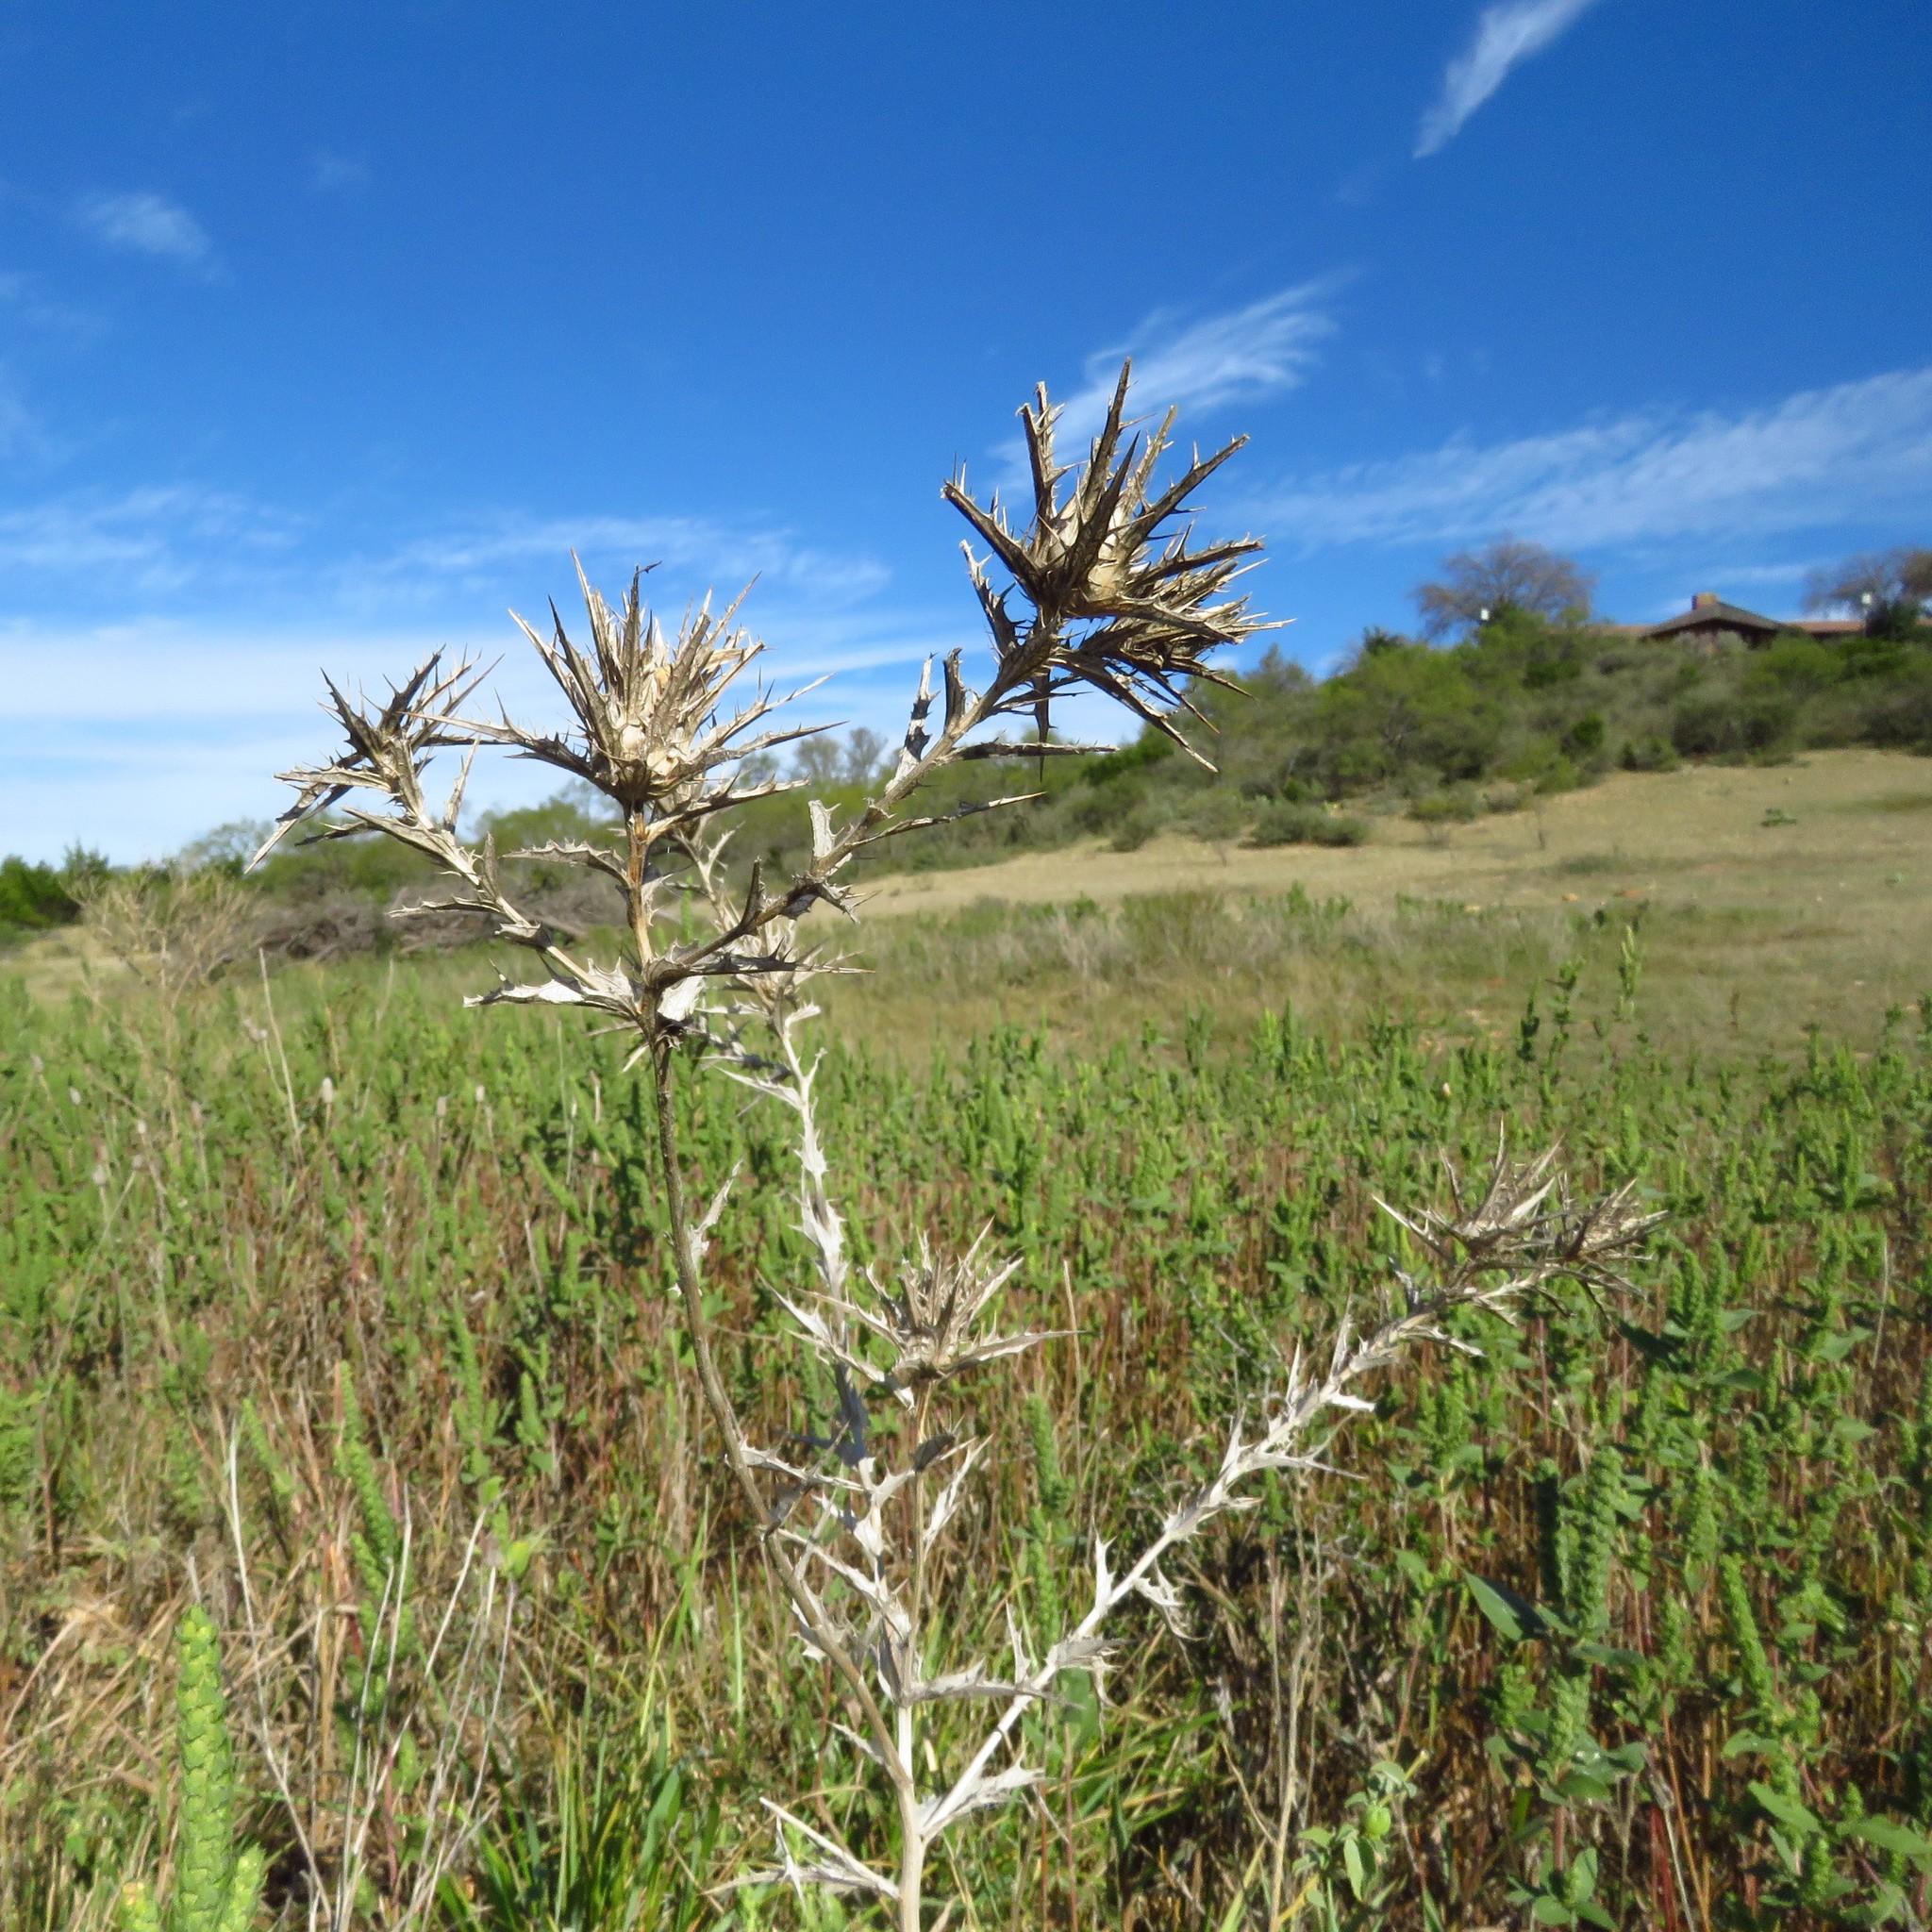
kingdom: Plantae
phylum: Tracheophyta
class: Magnoliopsida
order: Asterales
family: Asteraceae
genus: Carthamus
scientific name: Carthamus lanatus
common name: Downy safflower
